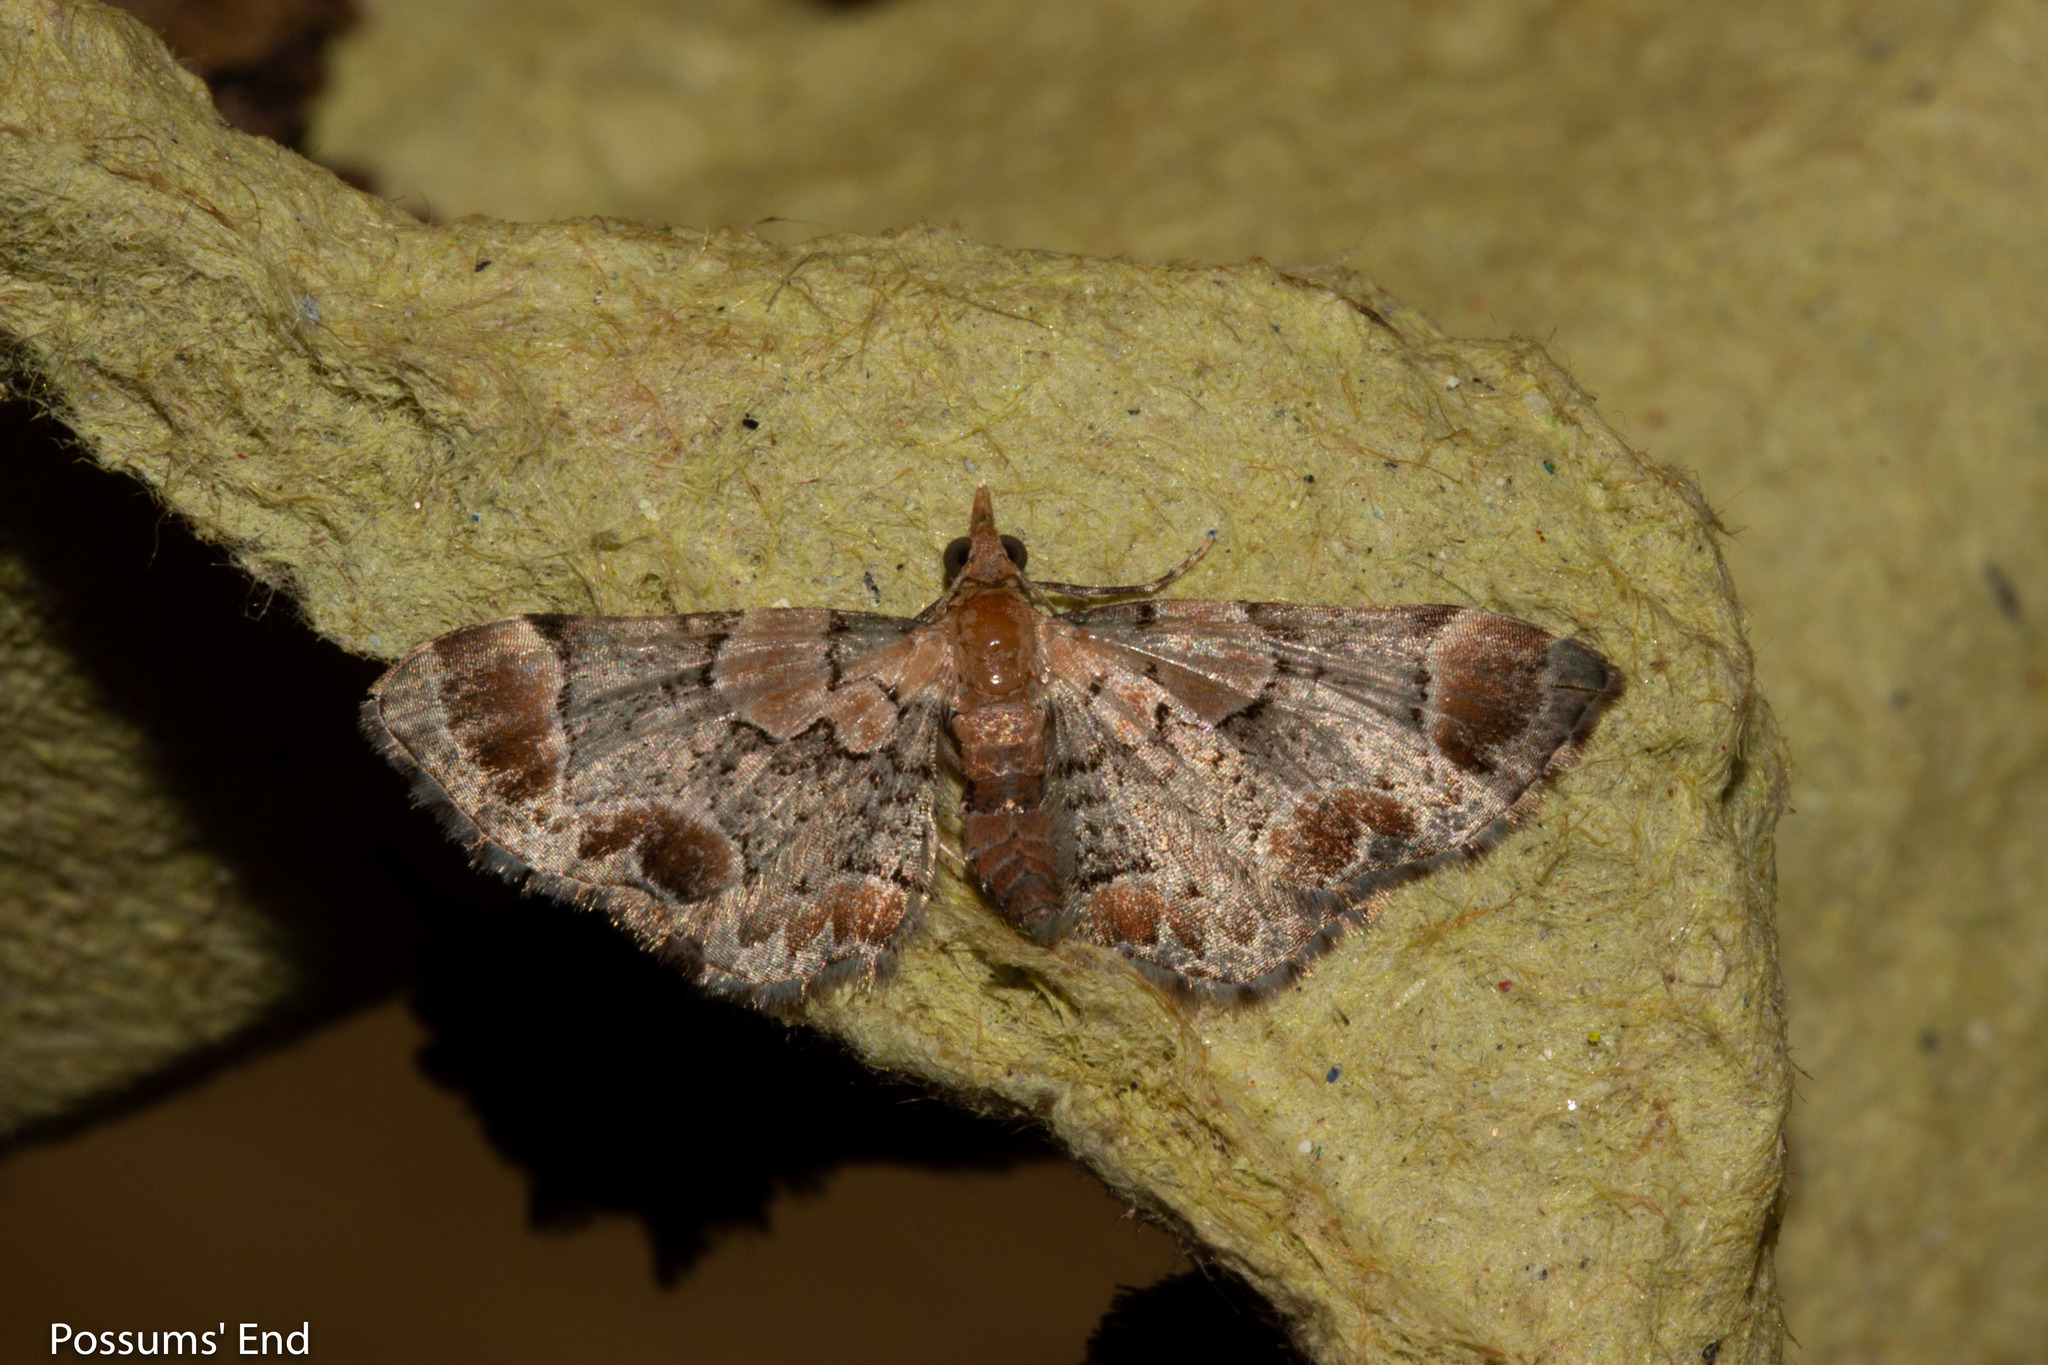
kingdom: Animalia
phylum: Arthropoda
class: Insecta
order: Lepidoptera
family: Geometridae
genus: Chloroclystis
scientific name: Chloroclystis
